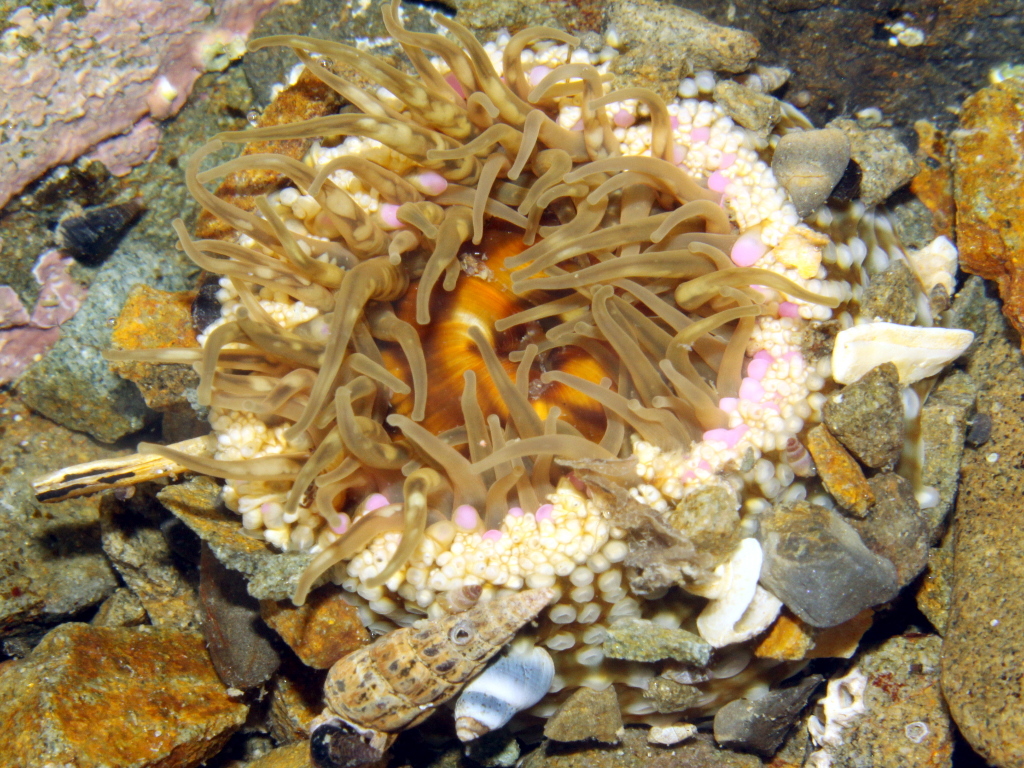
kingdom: Animalia
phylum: Cnidaria
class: Anthozoa
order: Actiniaria
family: Actiniidae
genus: Oulactis
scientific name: Oulactis muscosa
